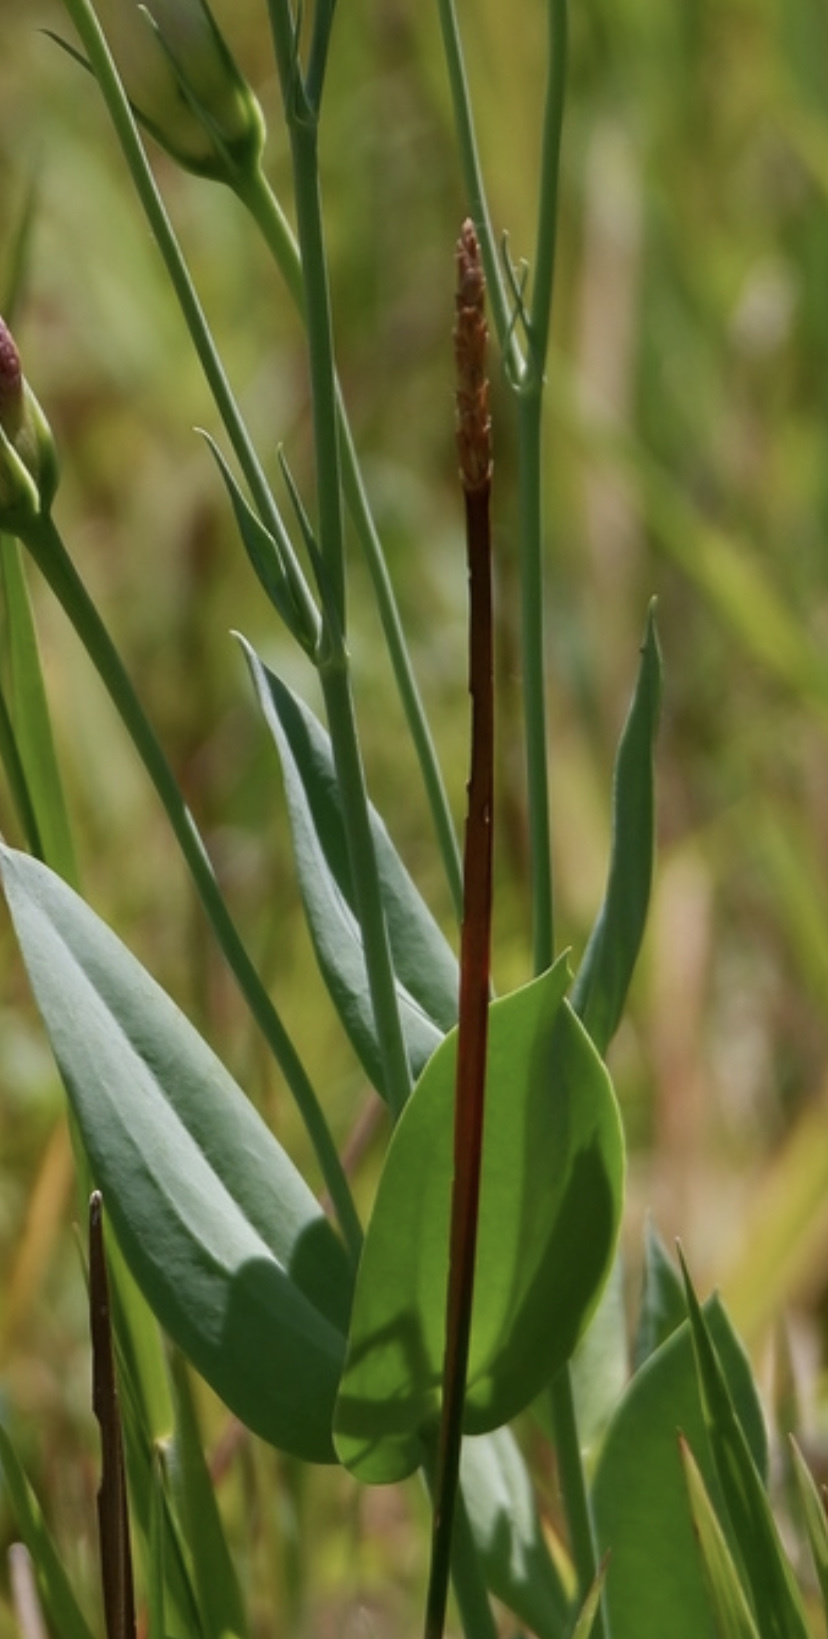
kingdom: Plantae
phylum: Tracheophyta
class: Liliopsida
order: Poales
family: Cyperaceae
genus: Eleocharis
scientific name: Eleocharis quadrangulata
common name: Square-stem spike-rush
